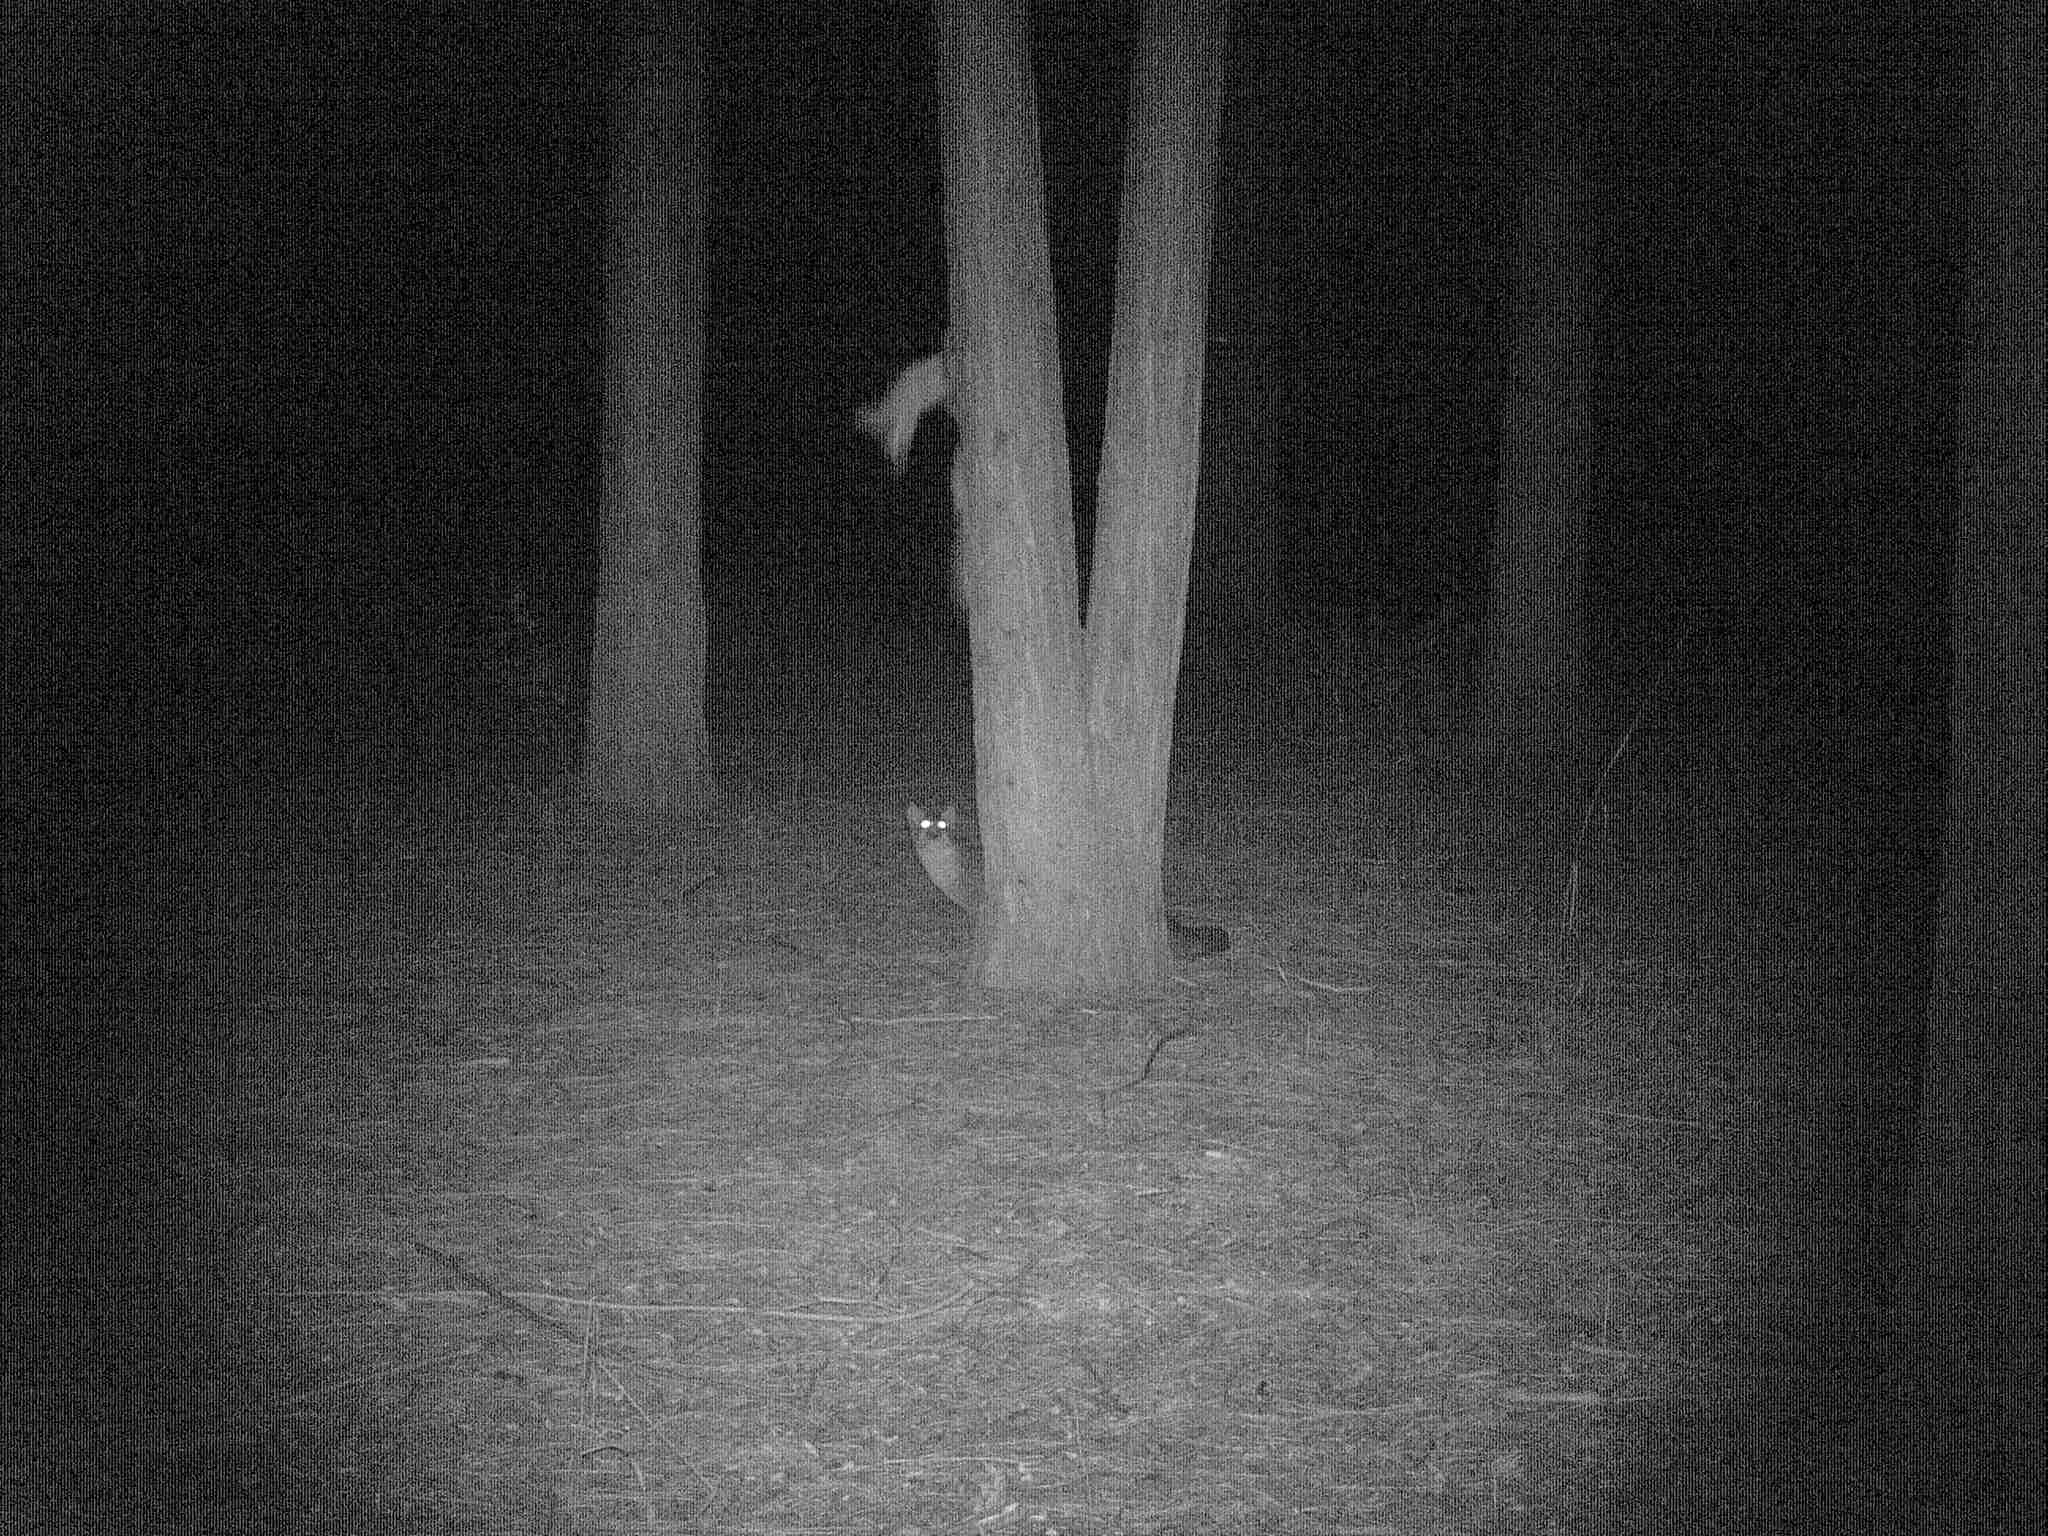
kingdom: Animalia
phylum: Chordata
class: Mammalia
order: Carnivora
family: Canidae
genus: Urocyon
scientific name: Urocyon cinereoargenteus
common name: Gray fox
